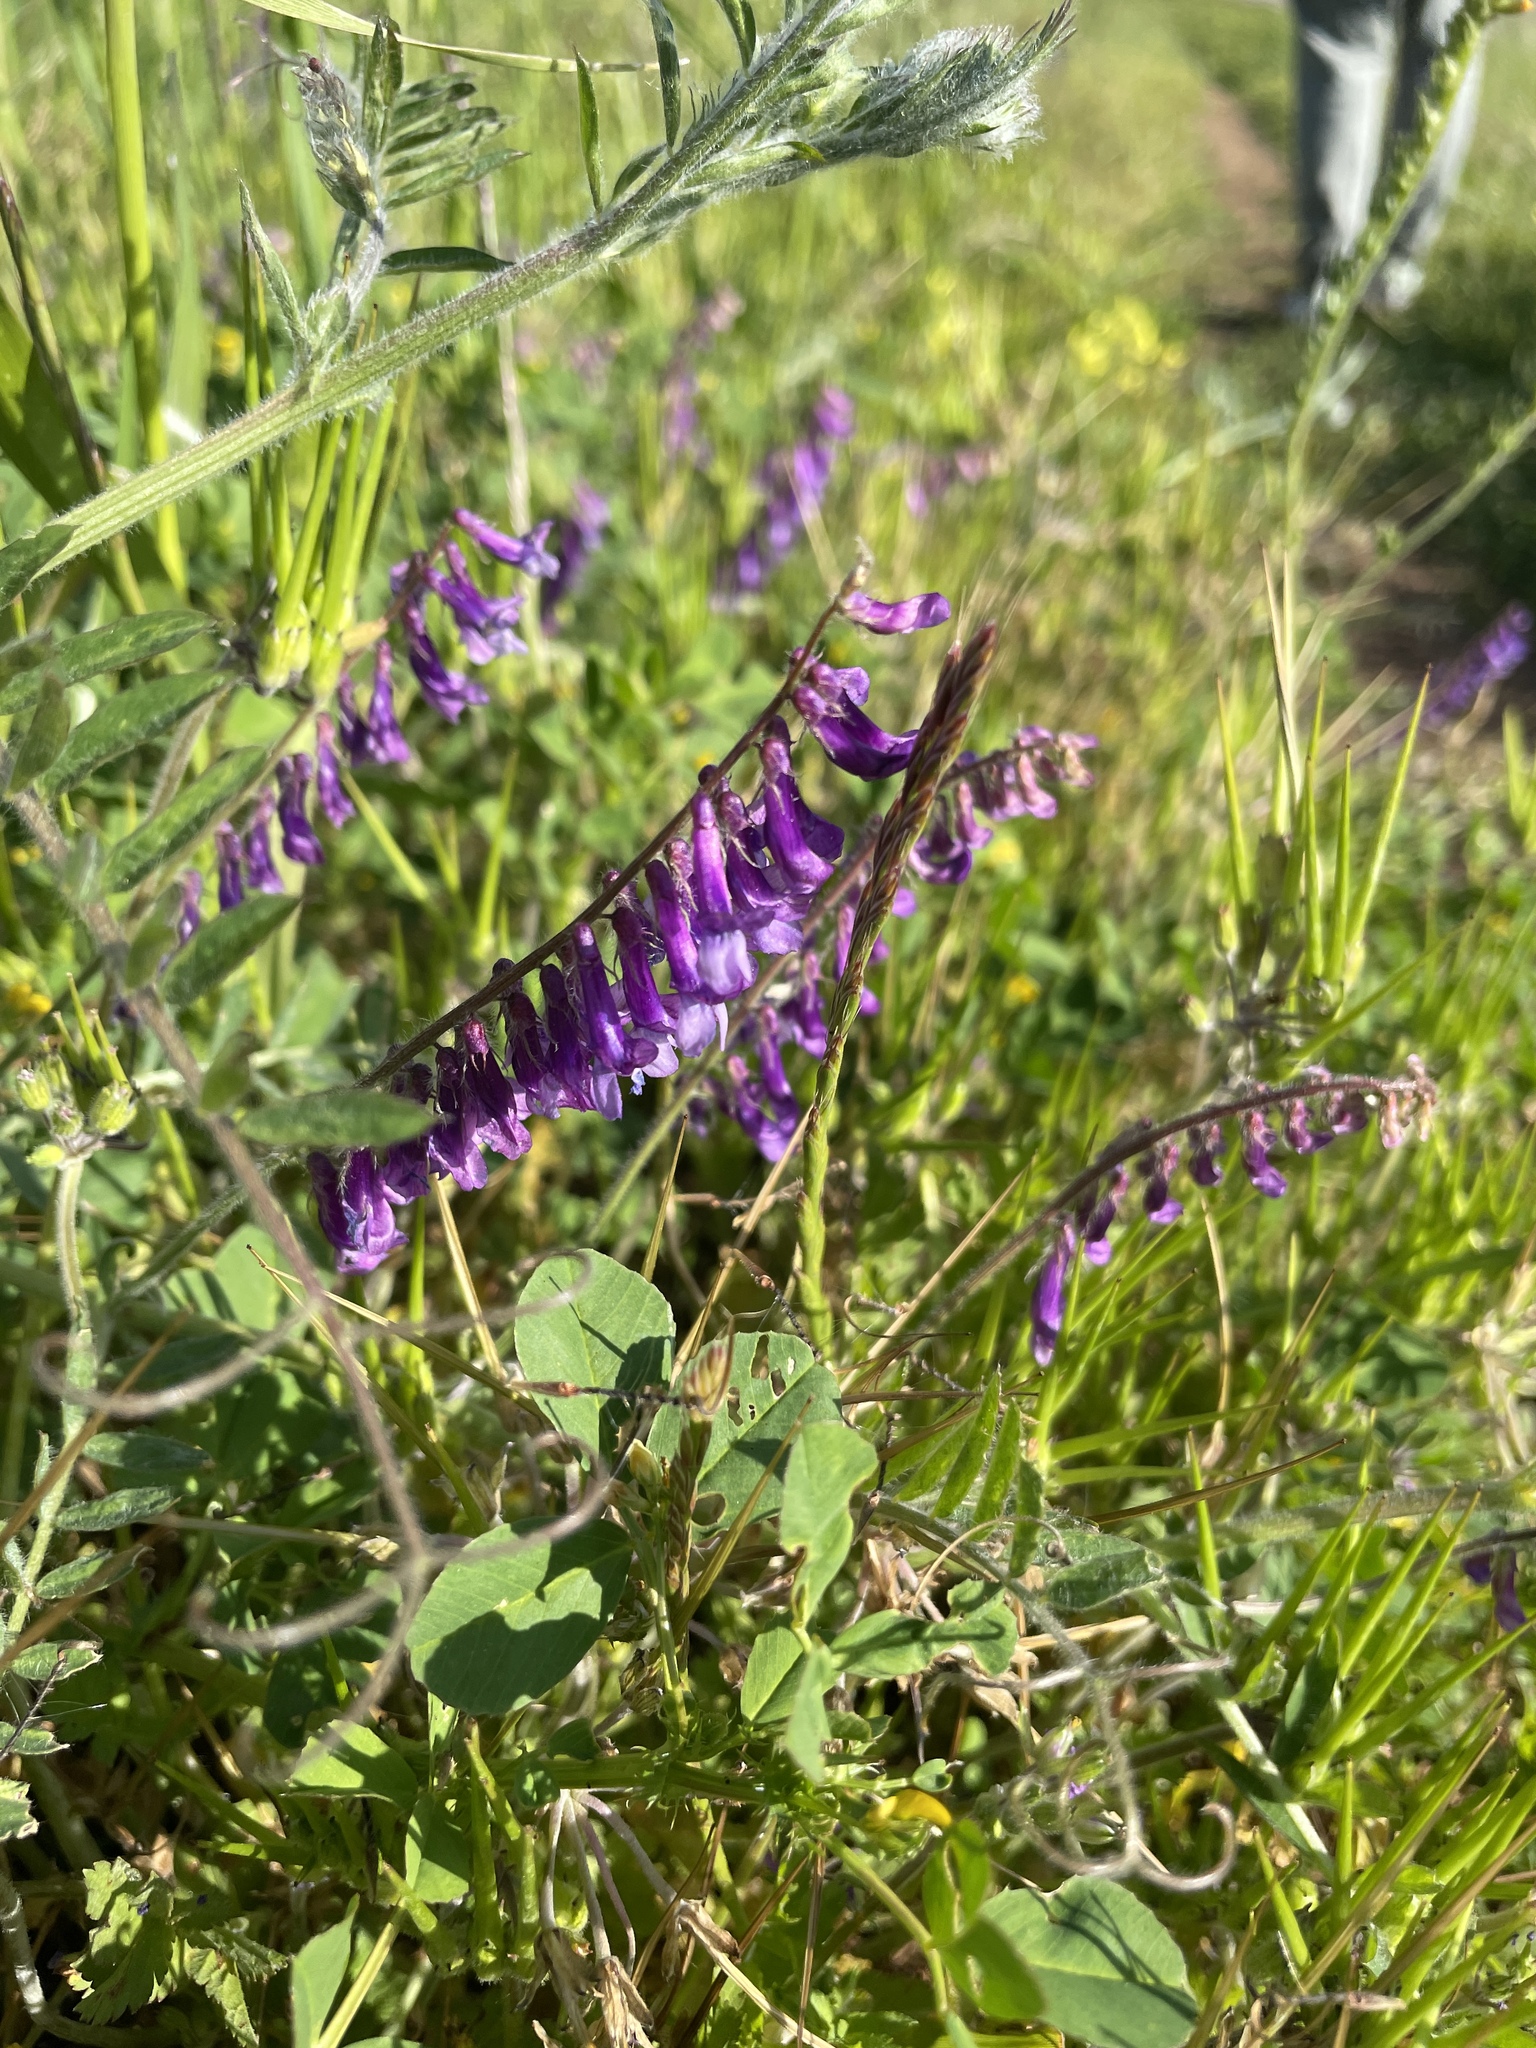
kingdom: Plantae
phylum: Tracheophyta
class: Magnoliopsida
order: Fabales
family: Fabaceae
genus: Vicia
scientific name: Vicia villosa
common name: Fodder vetch
